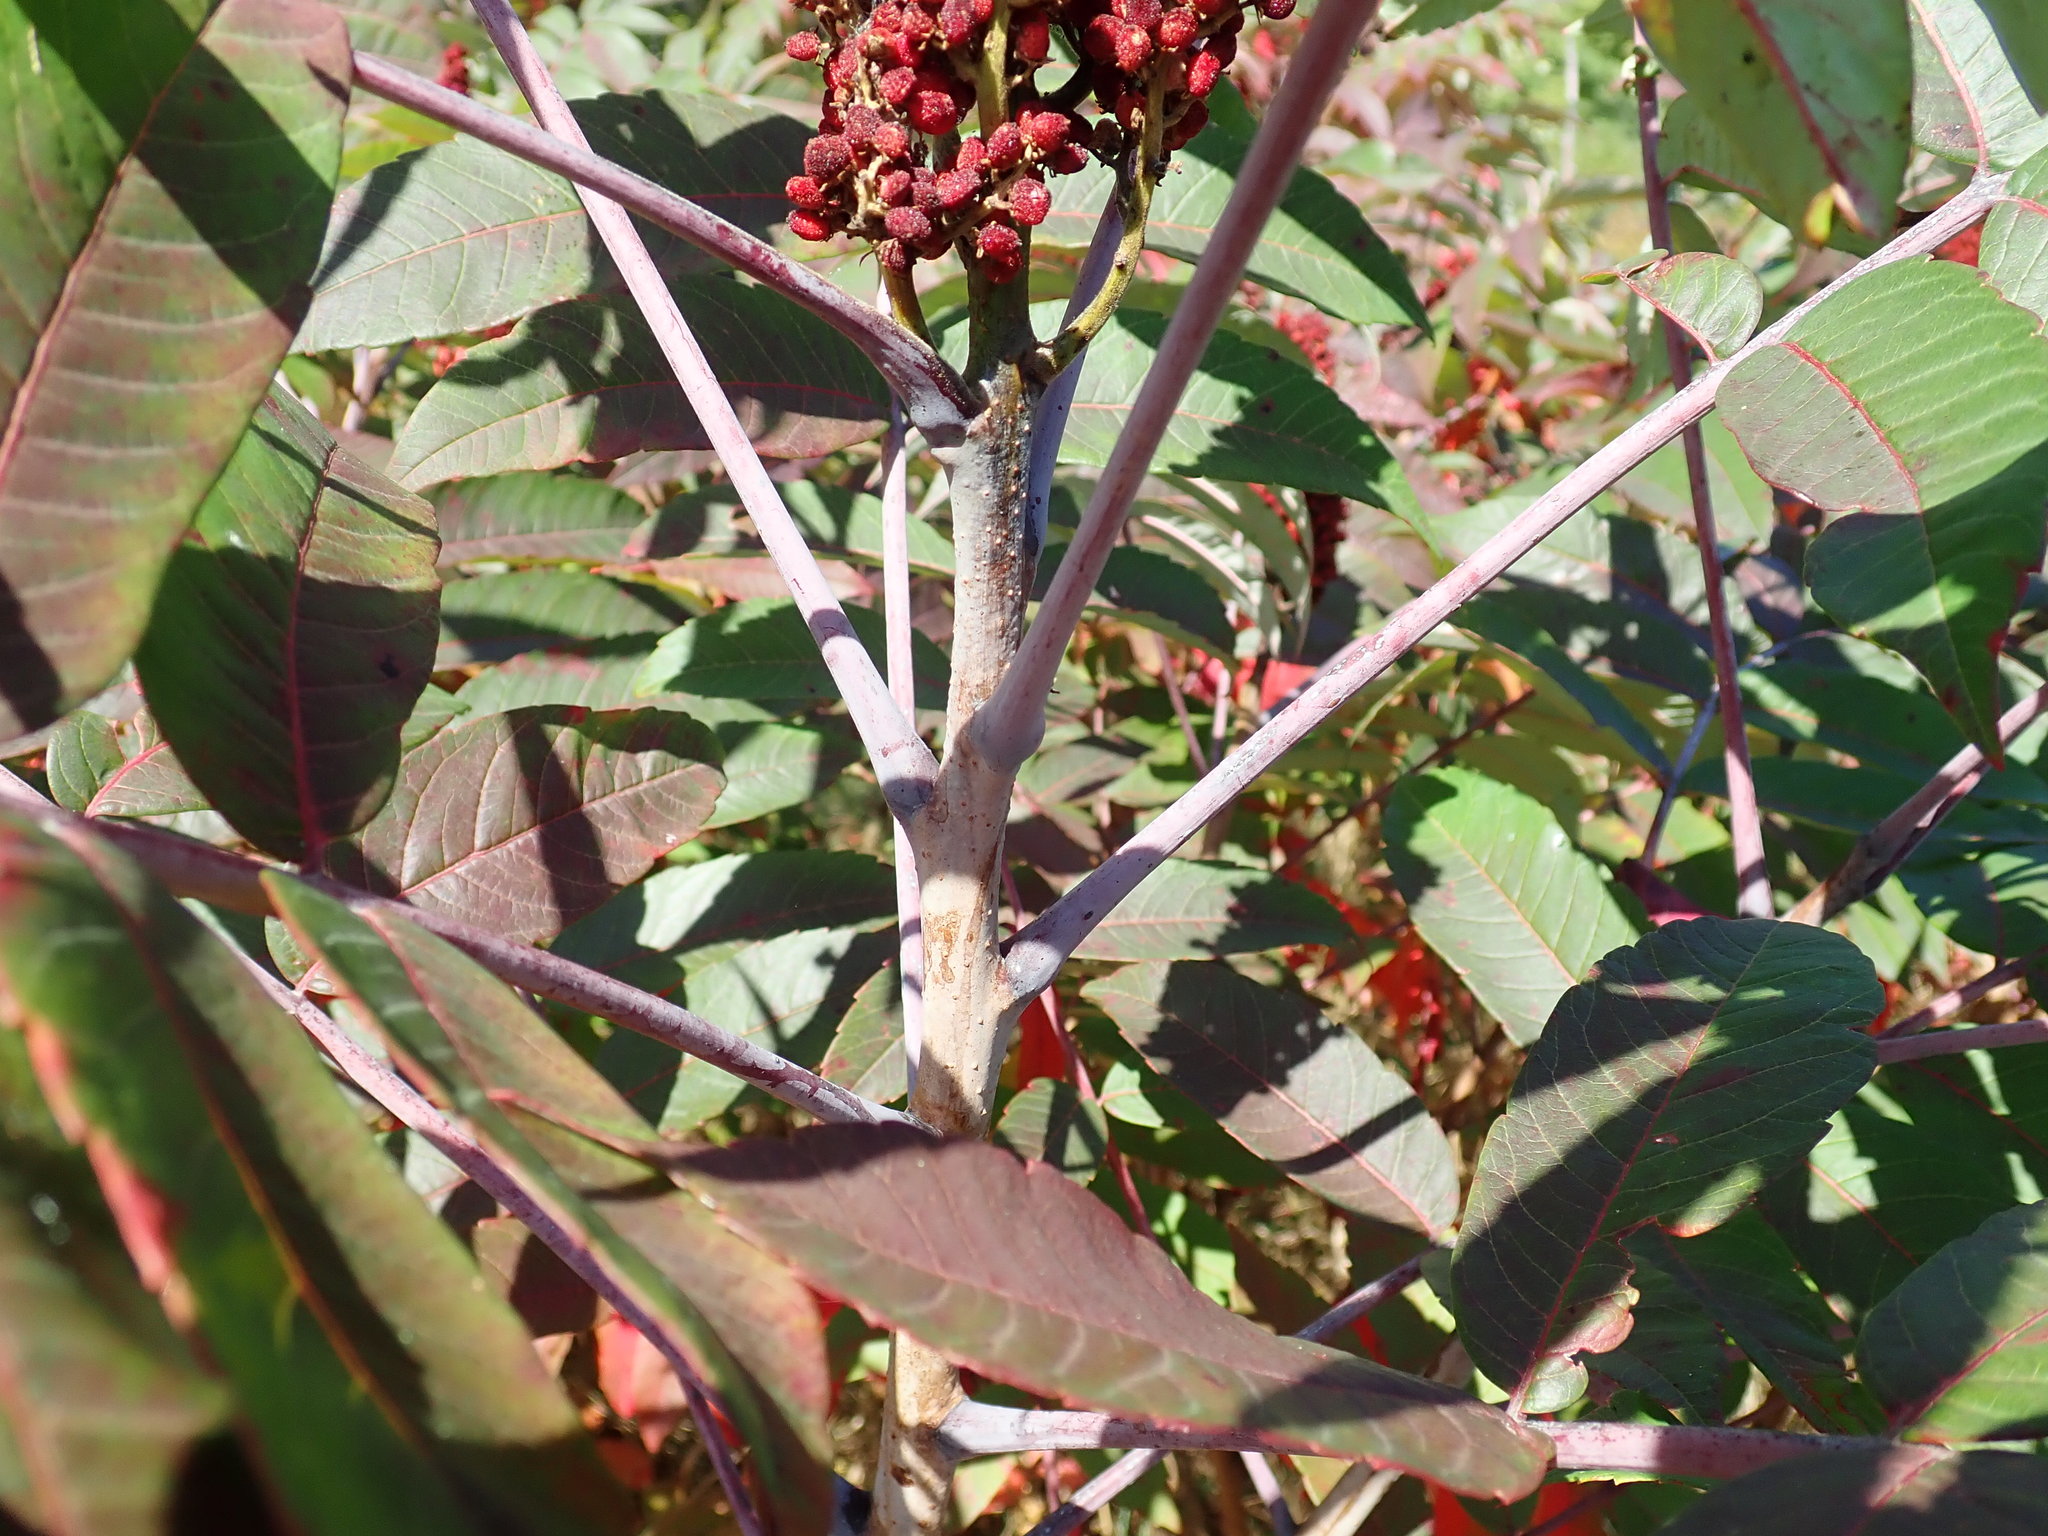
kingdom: Plantae
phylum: Tracheophyta
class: Magnoliopsida
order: Sapindales
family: Anacardiaceae
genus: Rhus
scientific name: Rhus glabra
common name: Scarlet sumac
